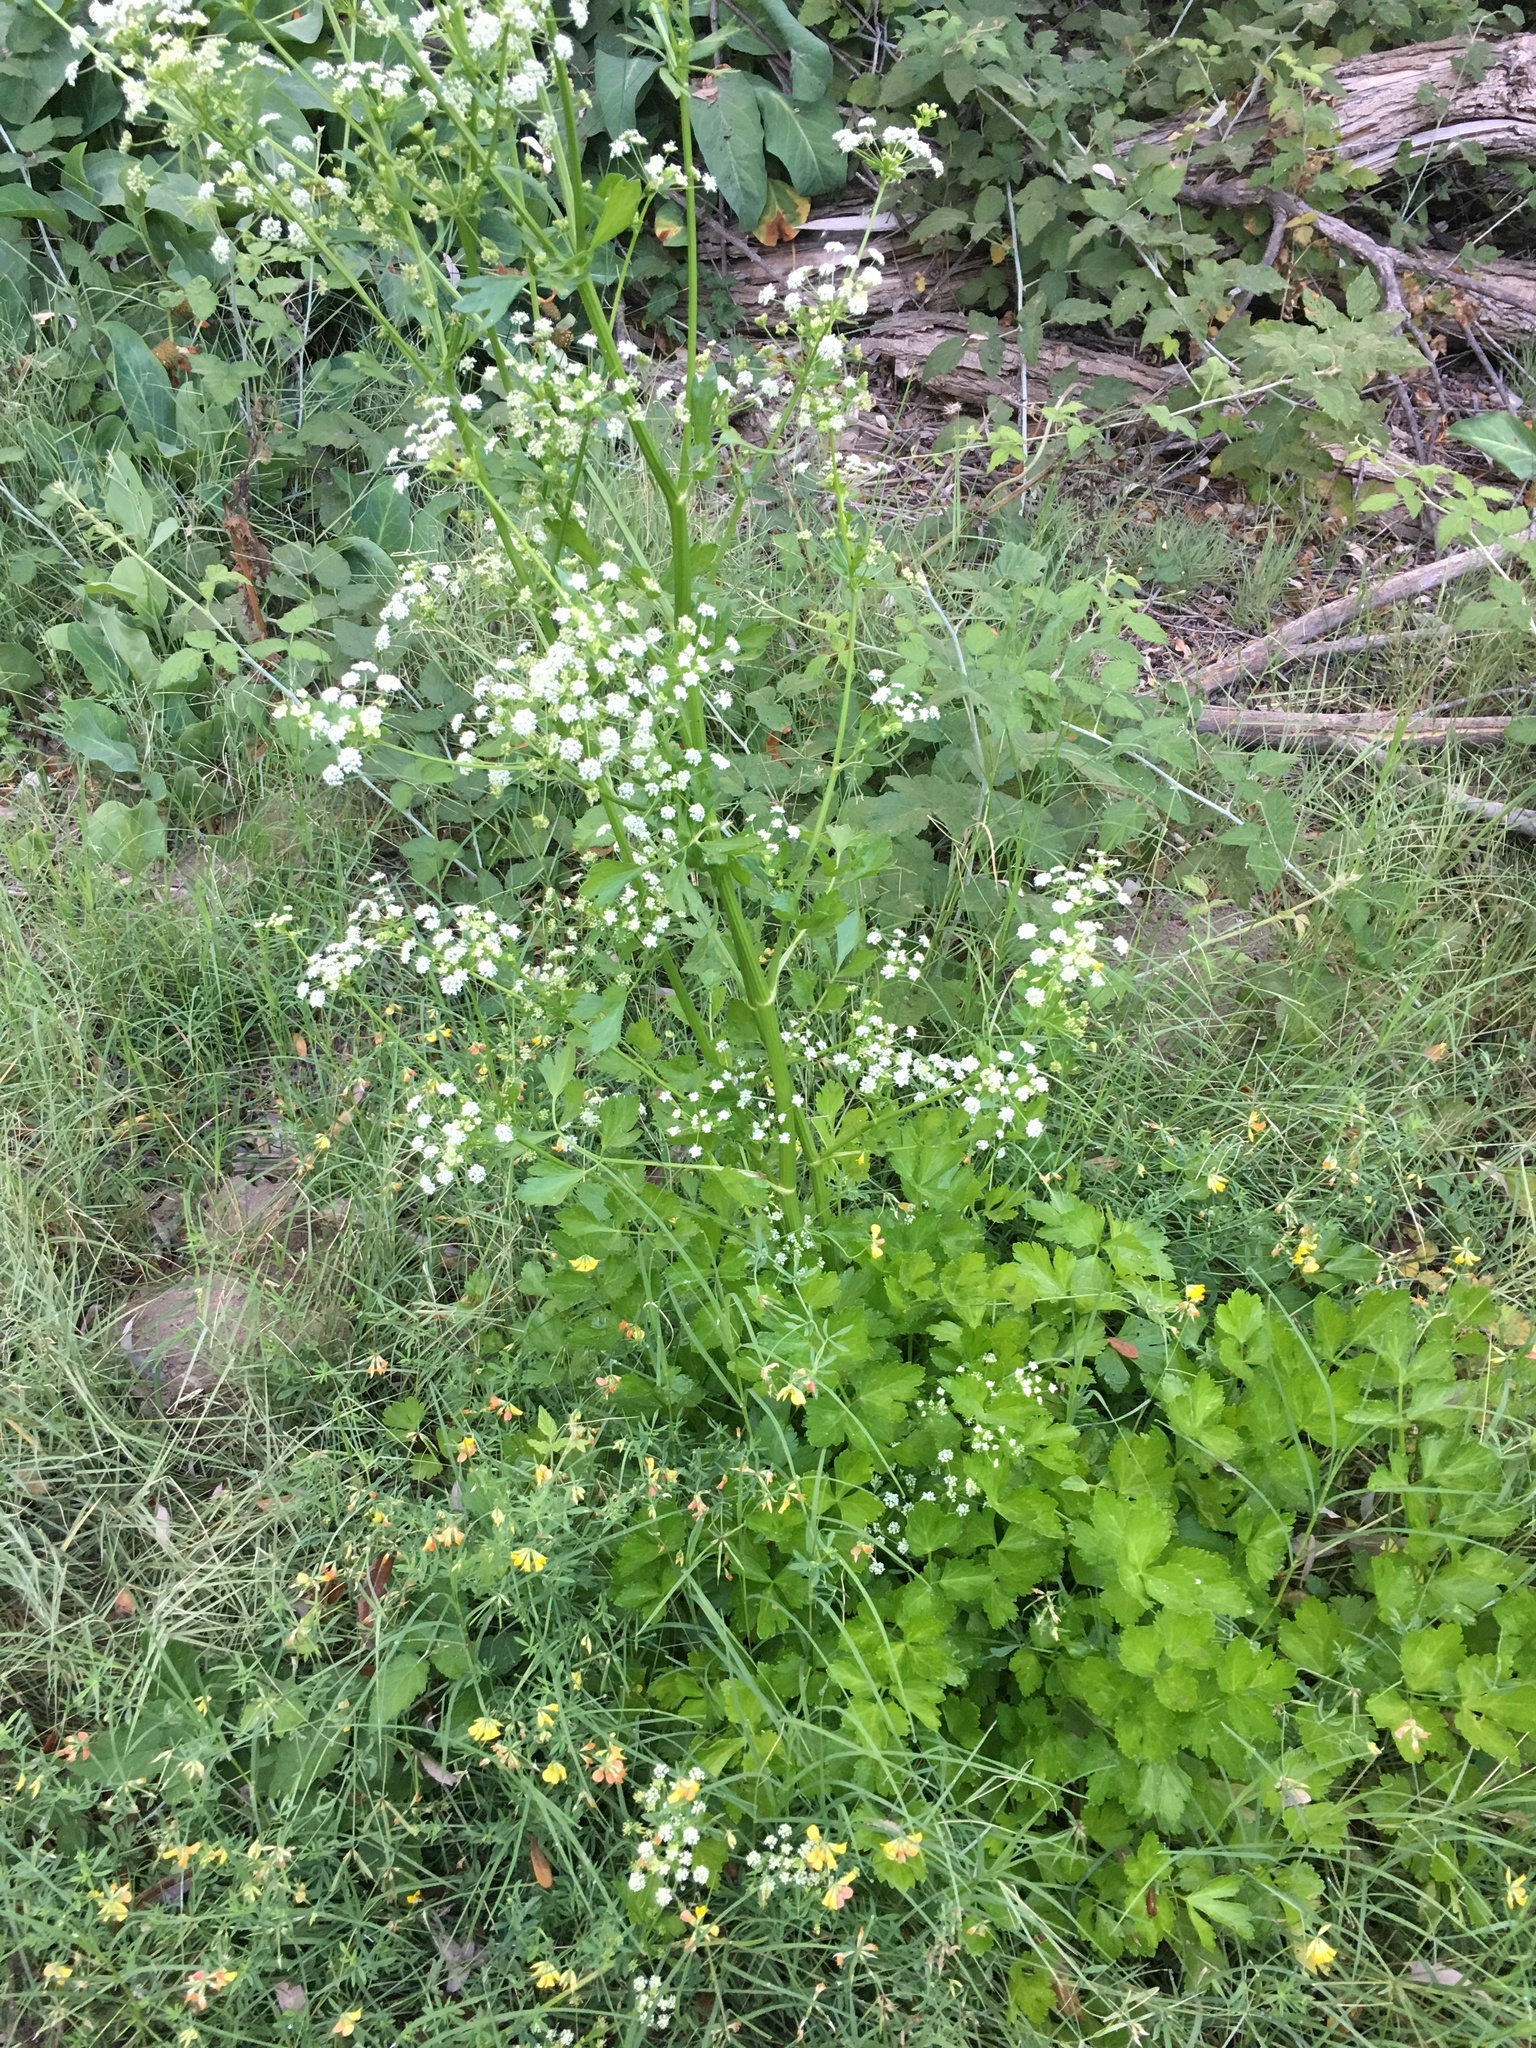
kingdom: Plantae
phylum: Tracheophyta
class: Magnoliopsida
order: Apiales
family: Apiaceae
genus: Apium
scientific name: Apium graveolens
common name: Wild celery
